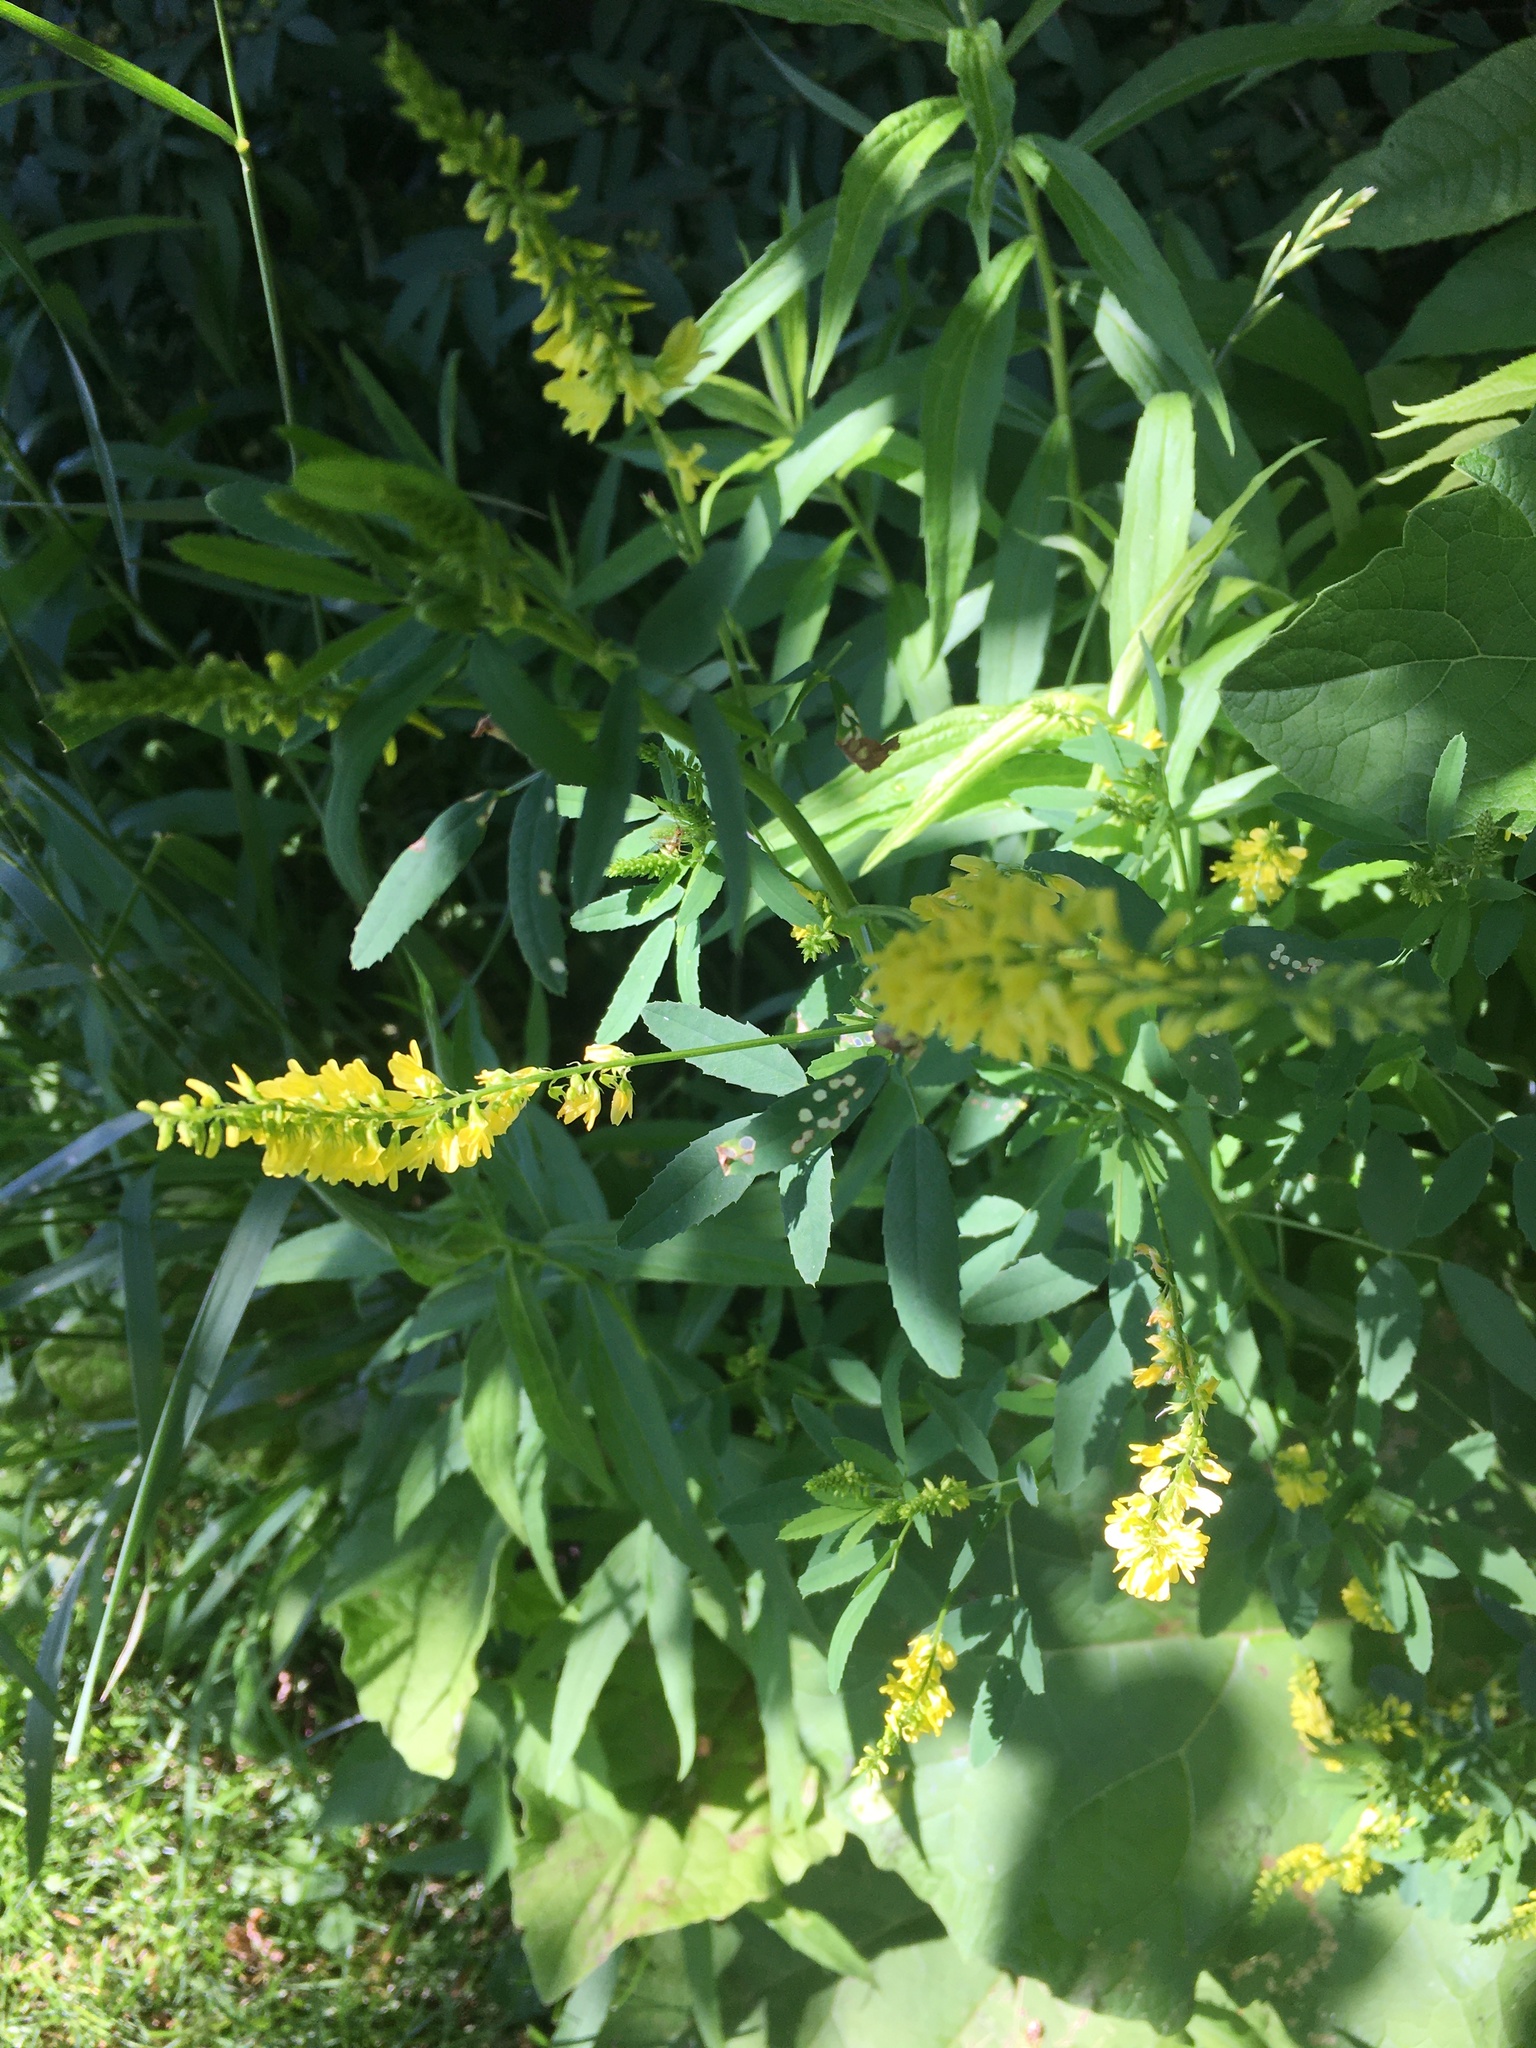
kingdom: Plantae
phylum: Tracheophyta
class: Magnoliopsida
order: Fabales
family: Fabaceae
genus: Melilotus
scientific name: Melilotus officinalis
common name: Sweetclover
